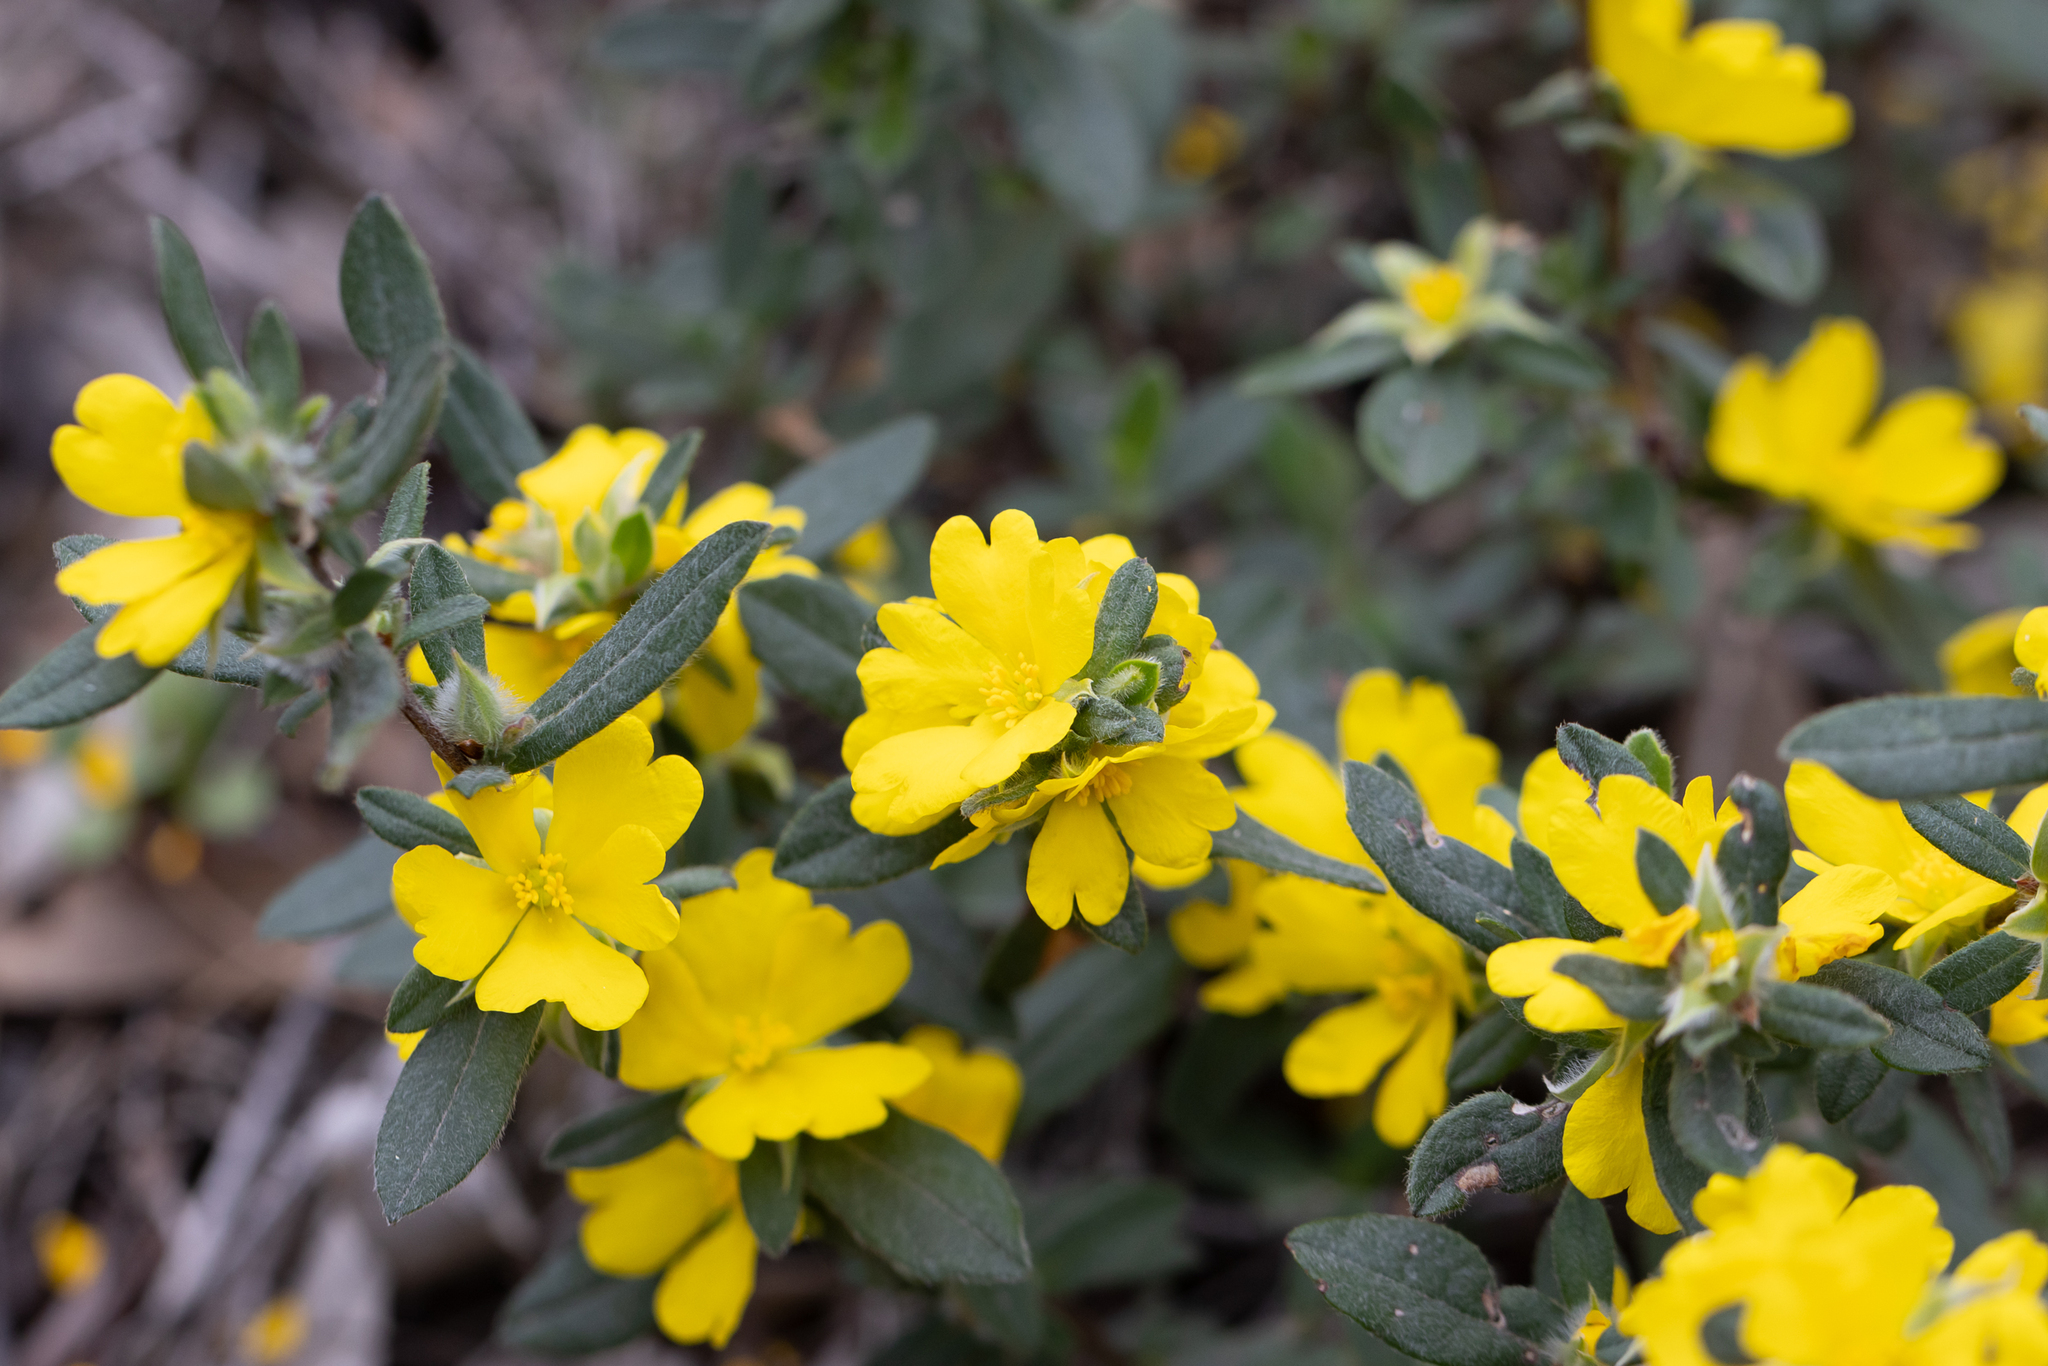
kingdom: Plantae
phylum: Tracheophyta
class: Magnoliopsida
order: Dilleniales
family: Dilleniaceae
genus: Hibbertia
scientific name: Hibbertia commutata
